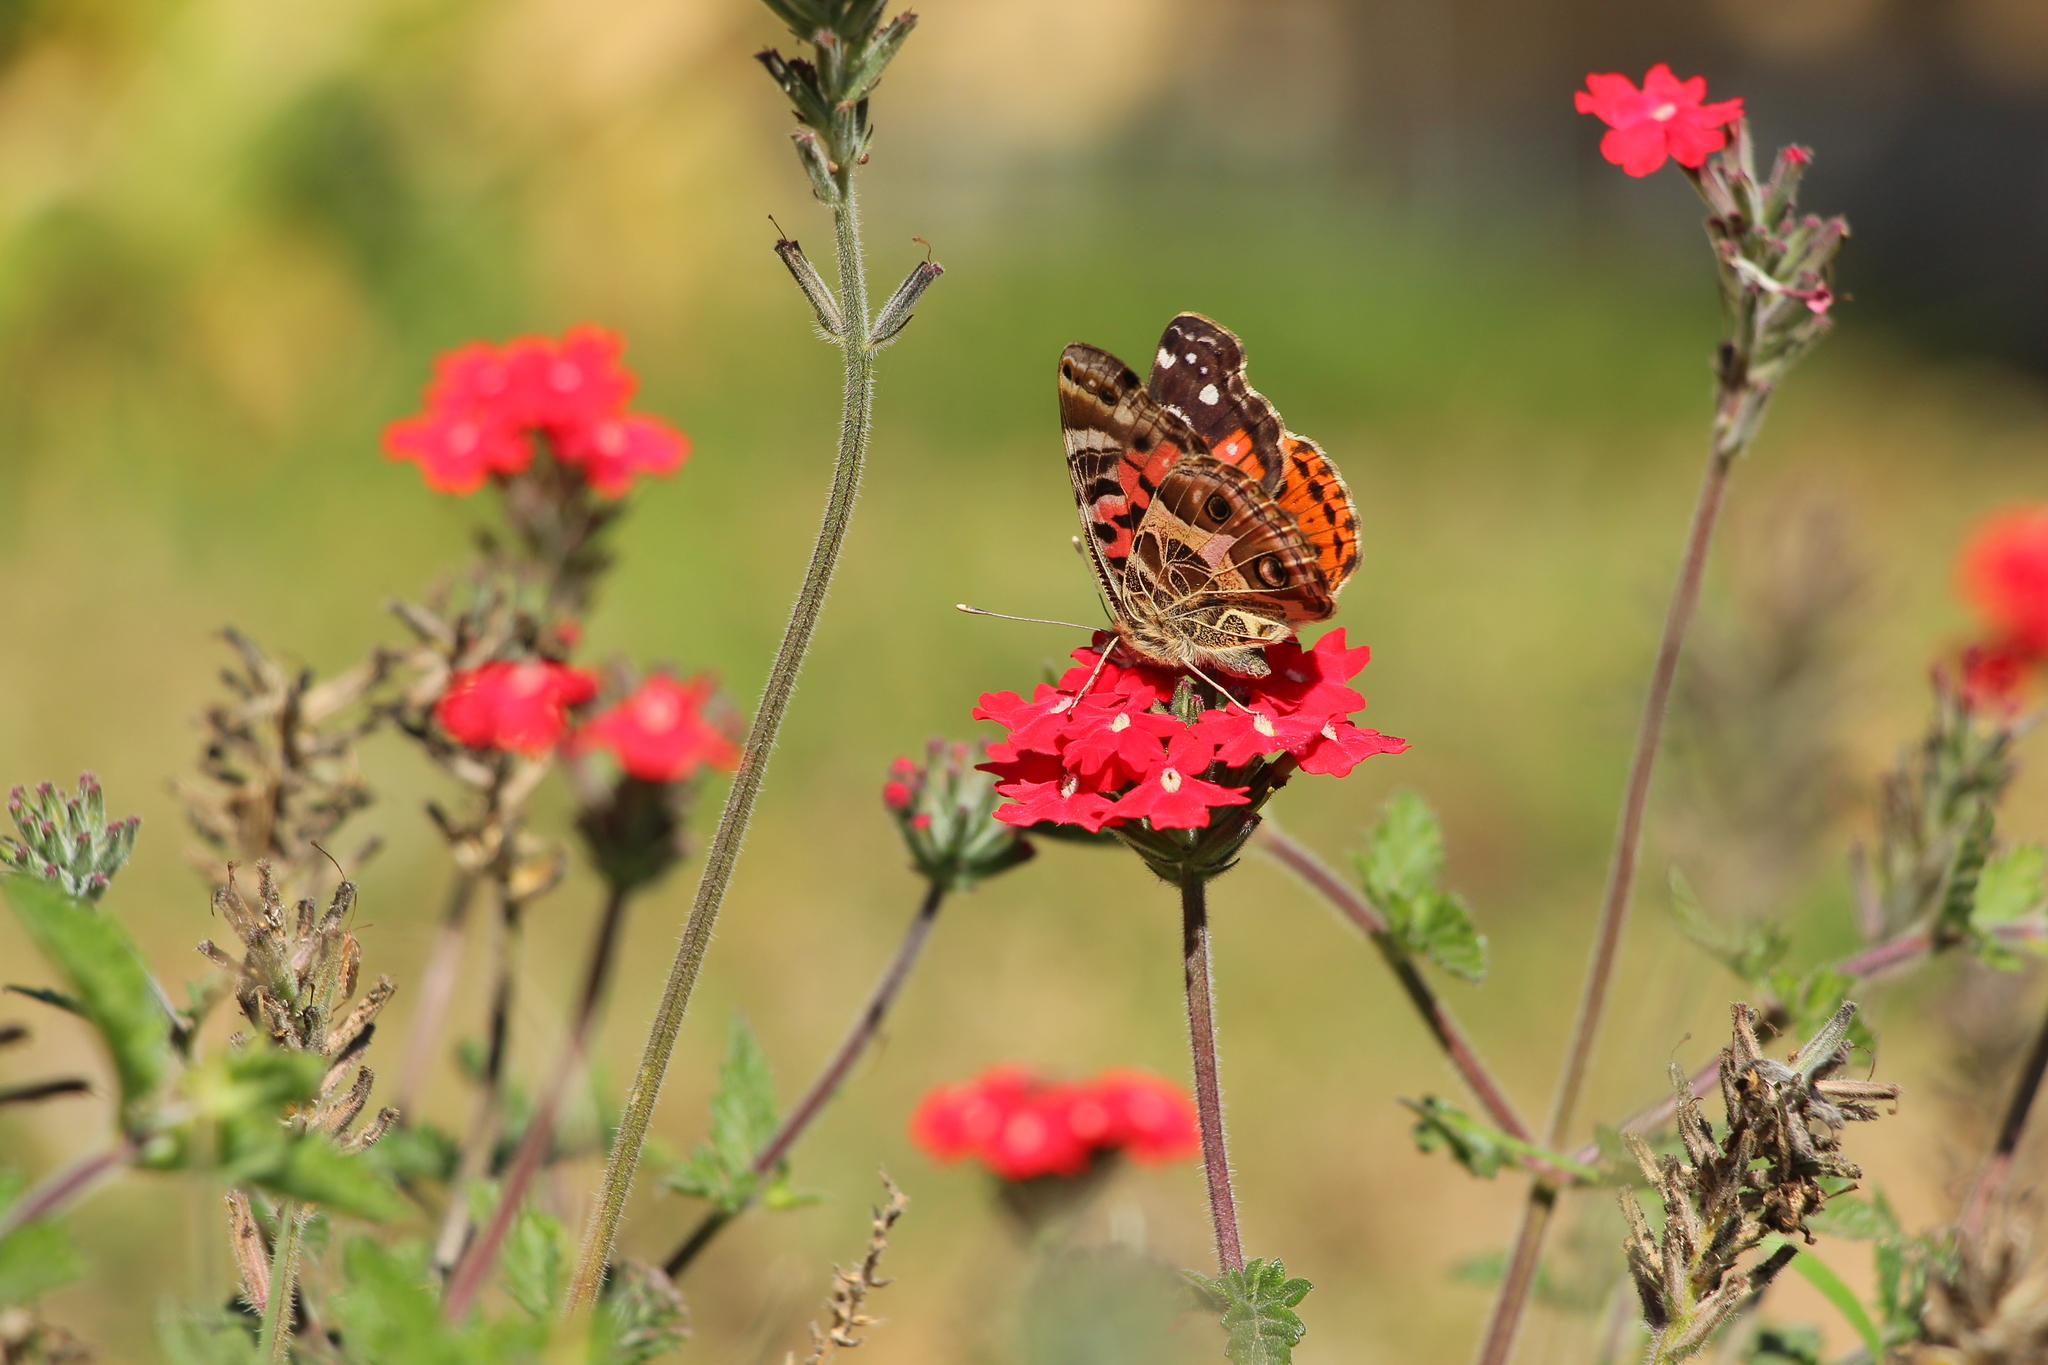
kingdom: Animalia
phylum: Arthropoda
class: Insecta
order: Lepidoptera
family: Nymphalidae
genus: Vanessa
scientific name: Vanessa braziliensis
